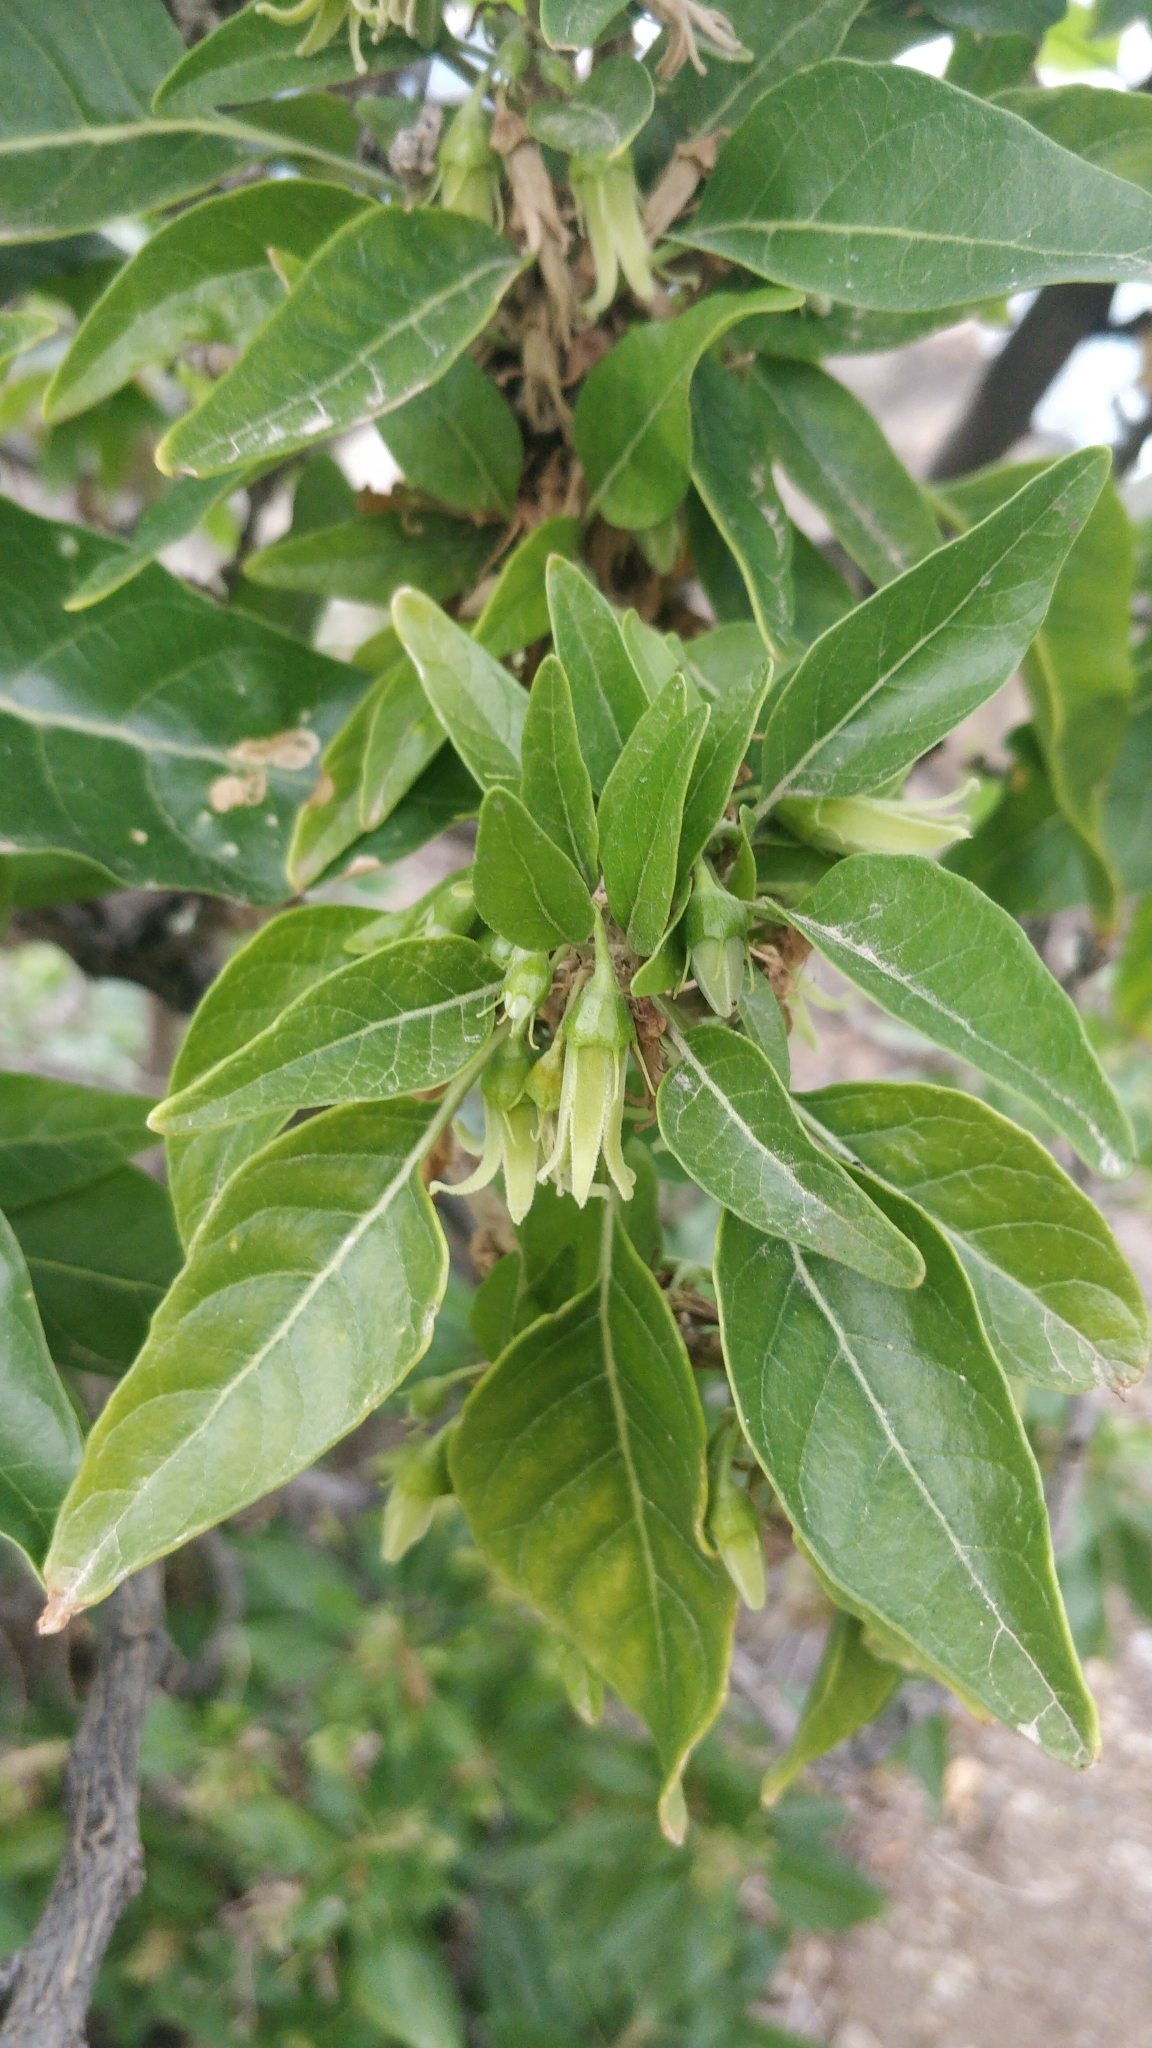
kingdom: Plantae
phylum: Tracheophyta
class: Magnoliopsida
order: Solanales
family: Solanaceae
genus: Withania
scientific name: Withania aristata
